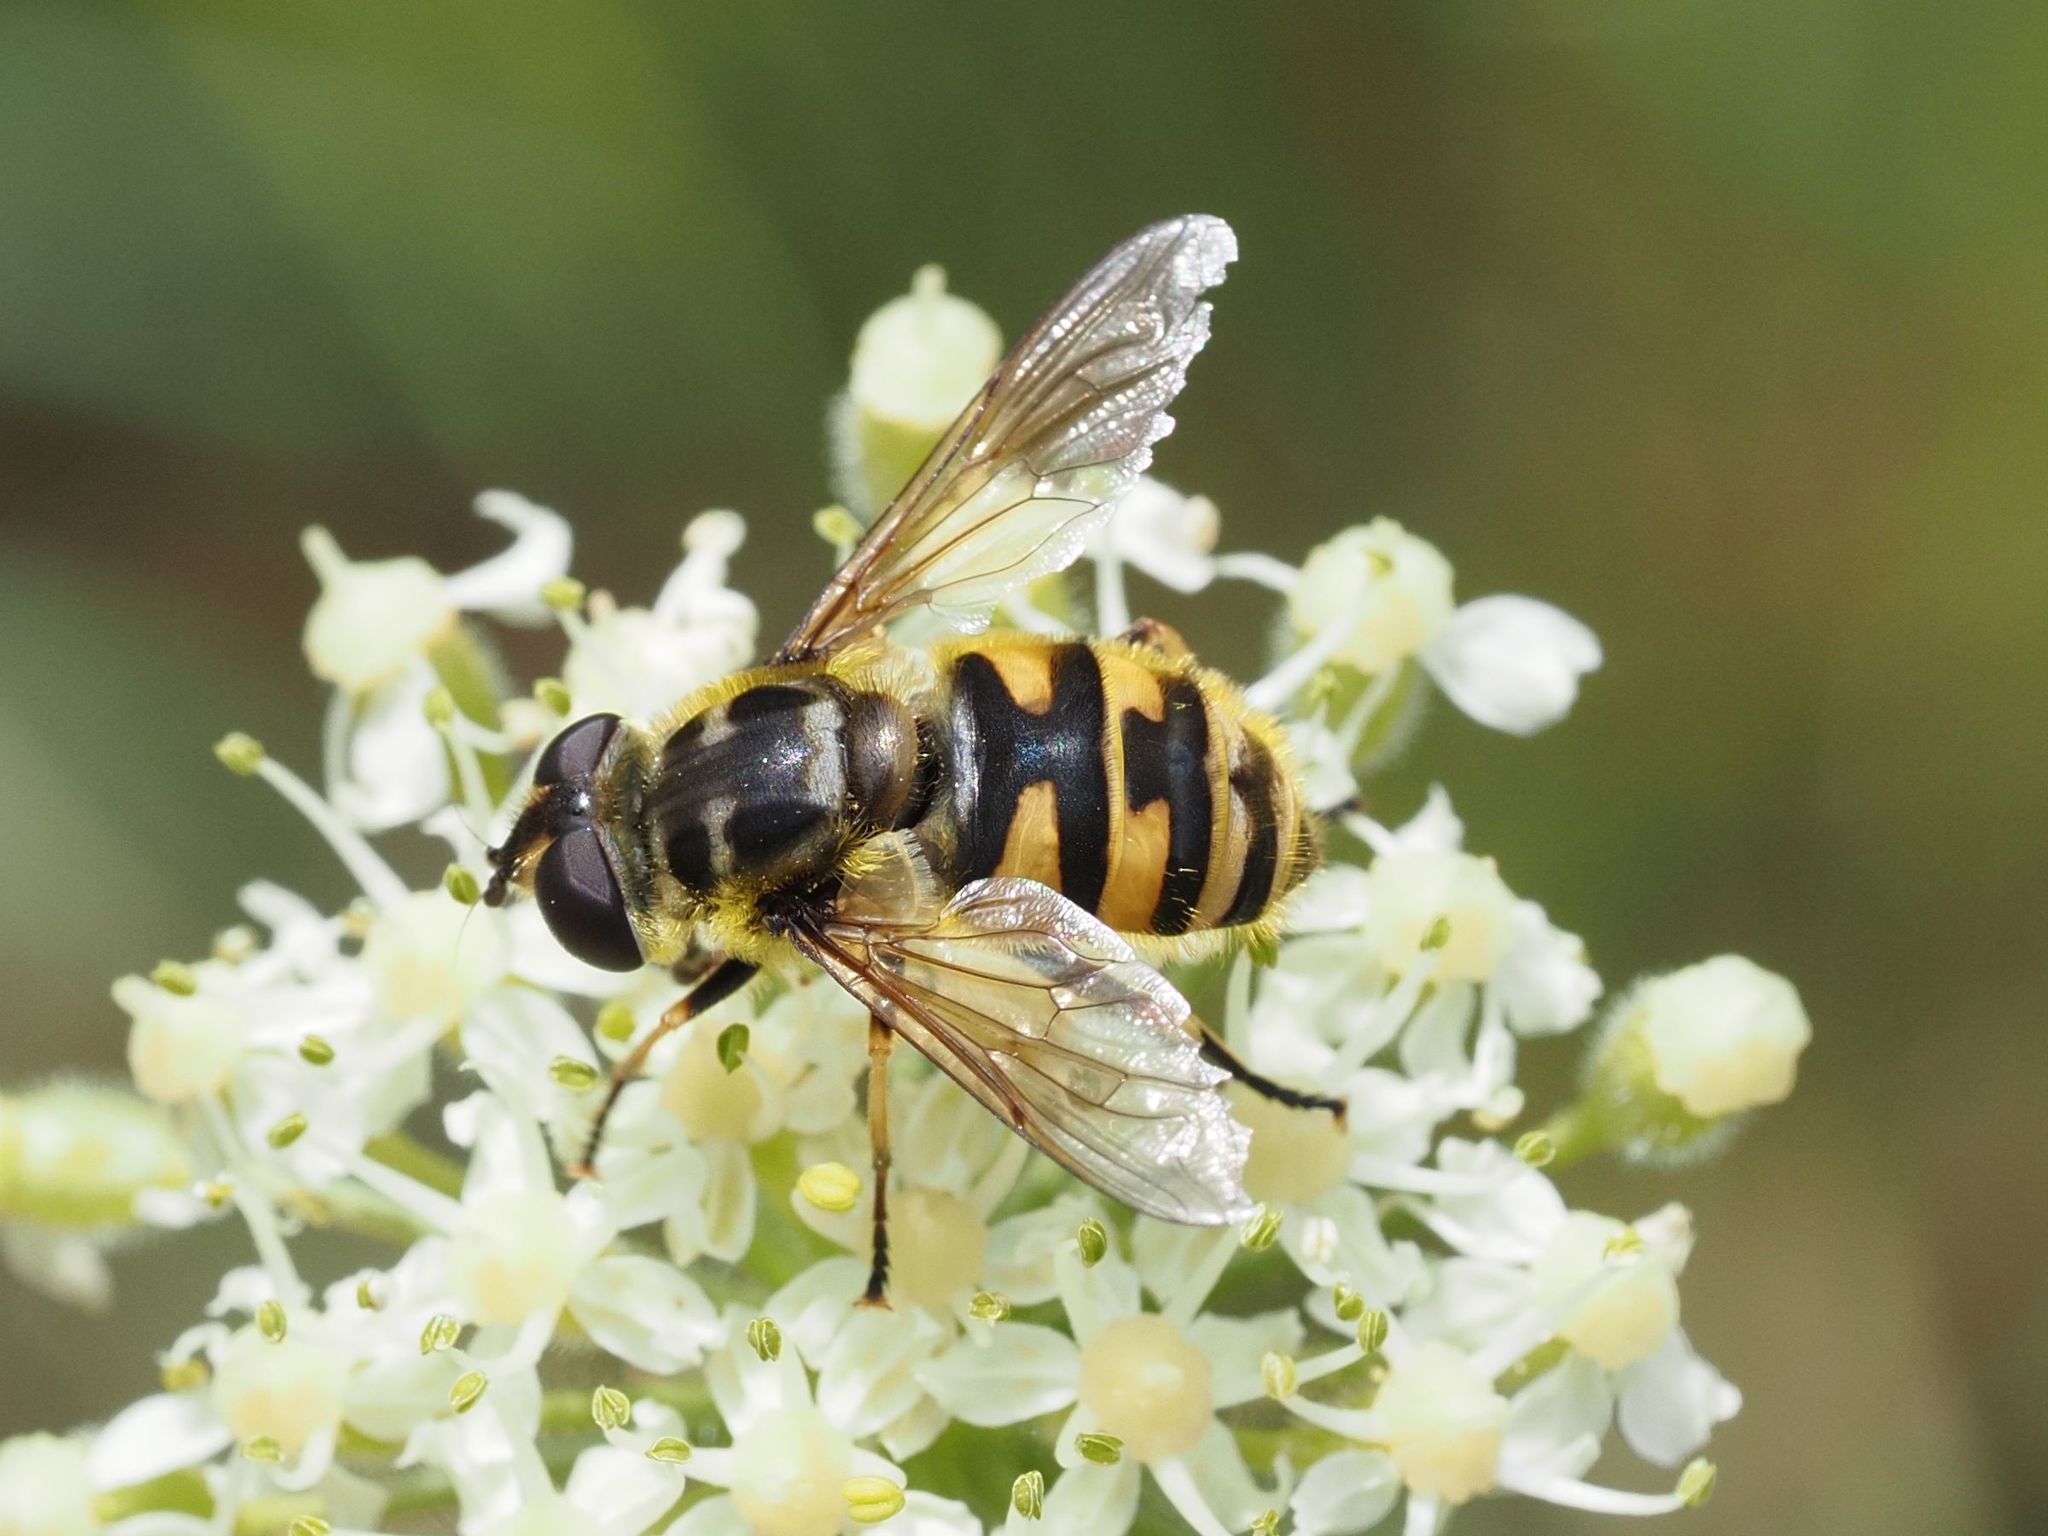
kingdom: Animalia
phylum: Arthropoda
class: Insecta
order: Diptera
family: Syrphidae
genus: Myathropa
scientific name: Myathropa florea
